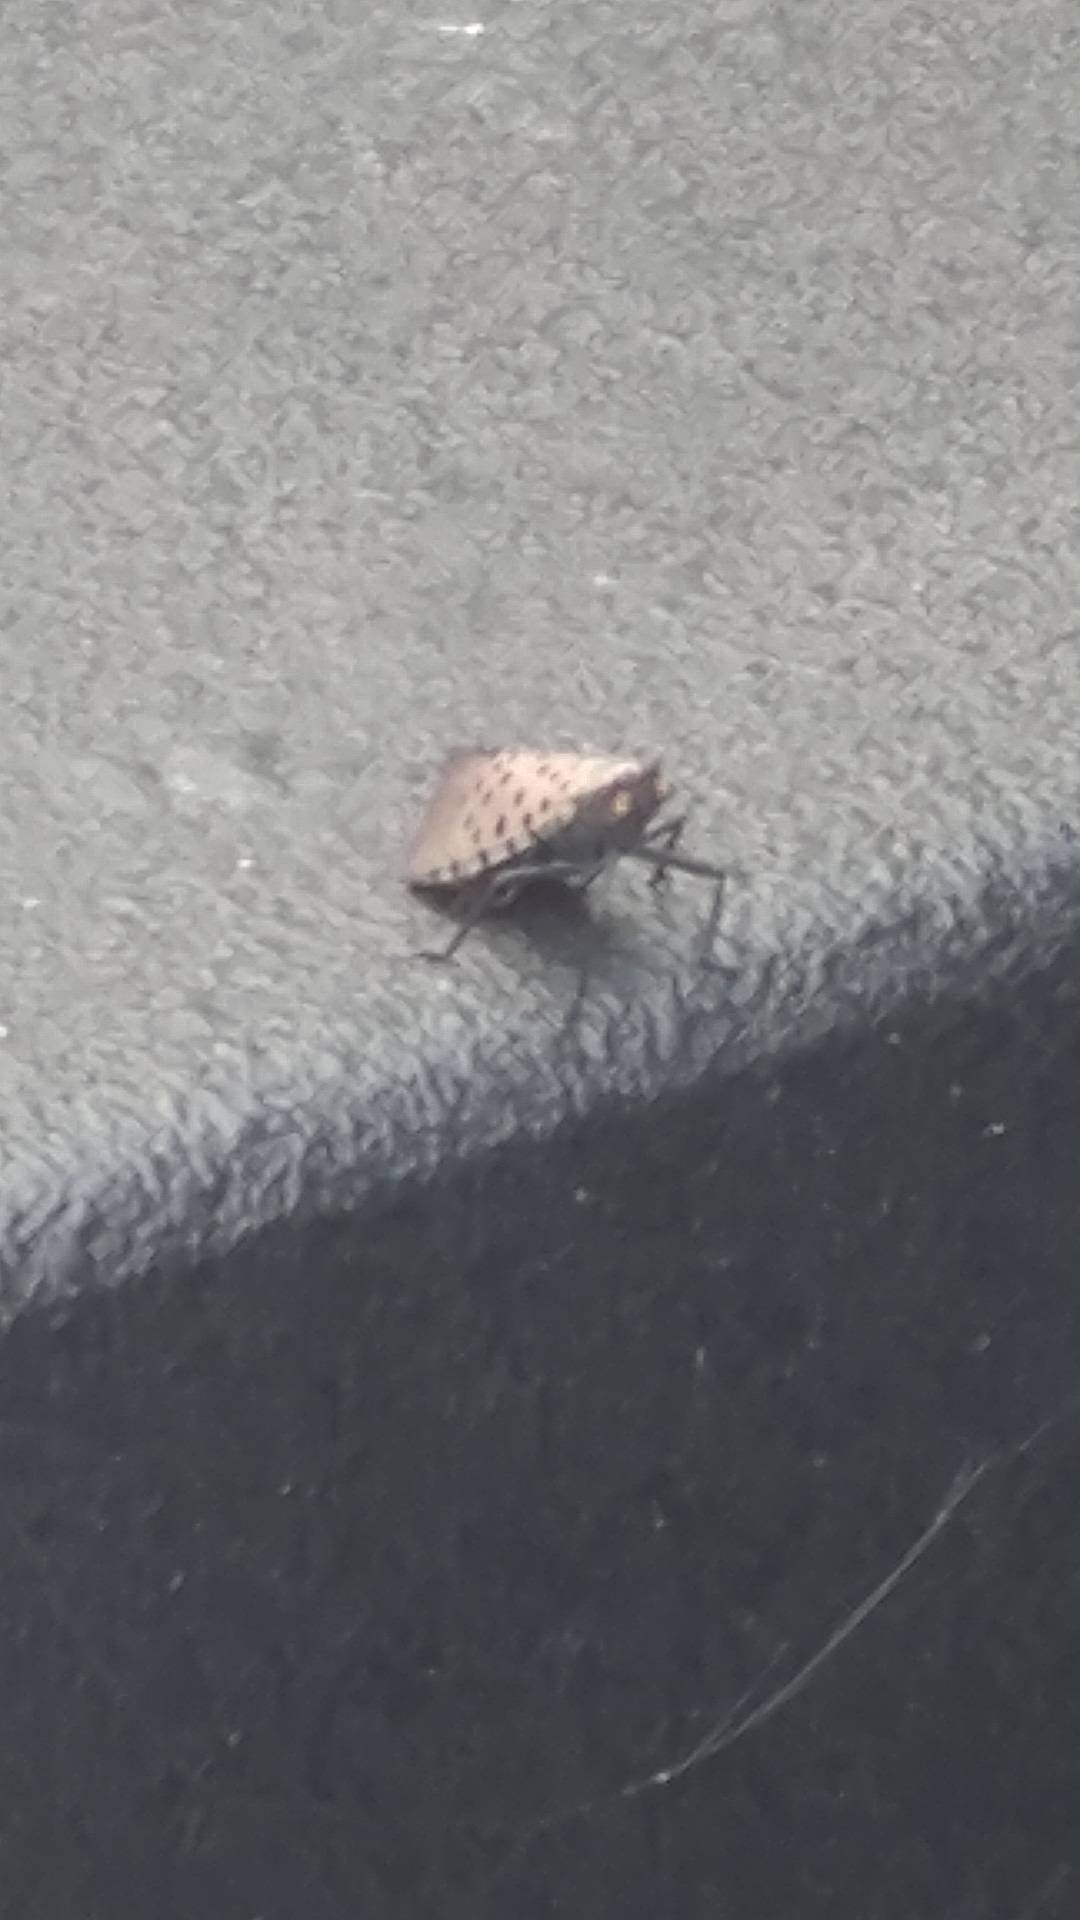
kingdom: Animalia
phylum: Arthropoda
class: Insecta
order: Hemiptera
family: Fulgoridae
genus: Lycorma
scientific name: Lycorma delicatula
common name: Spotted lanternfly
